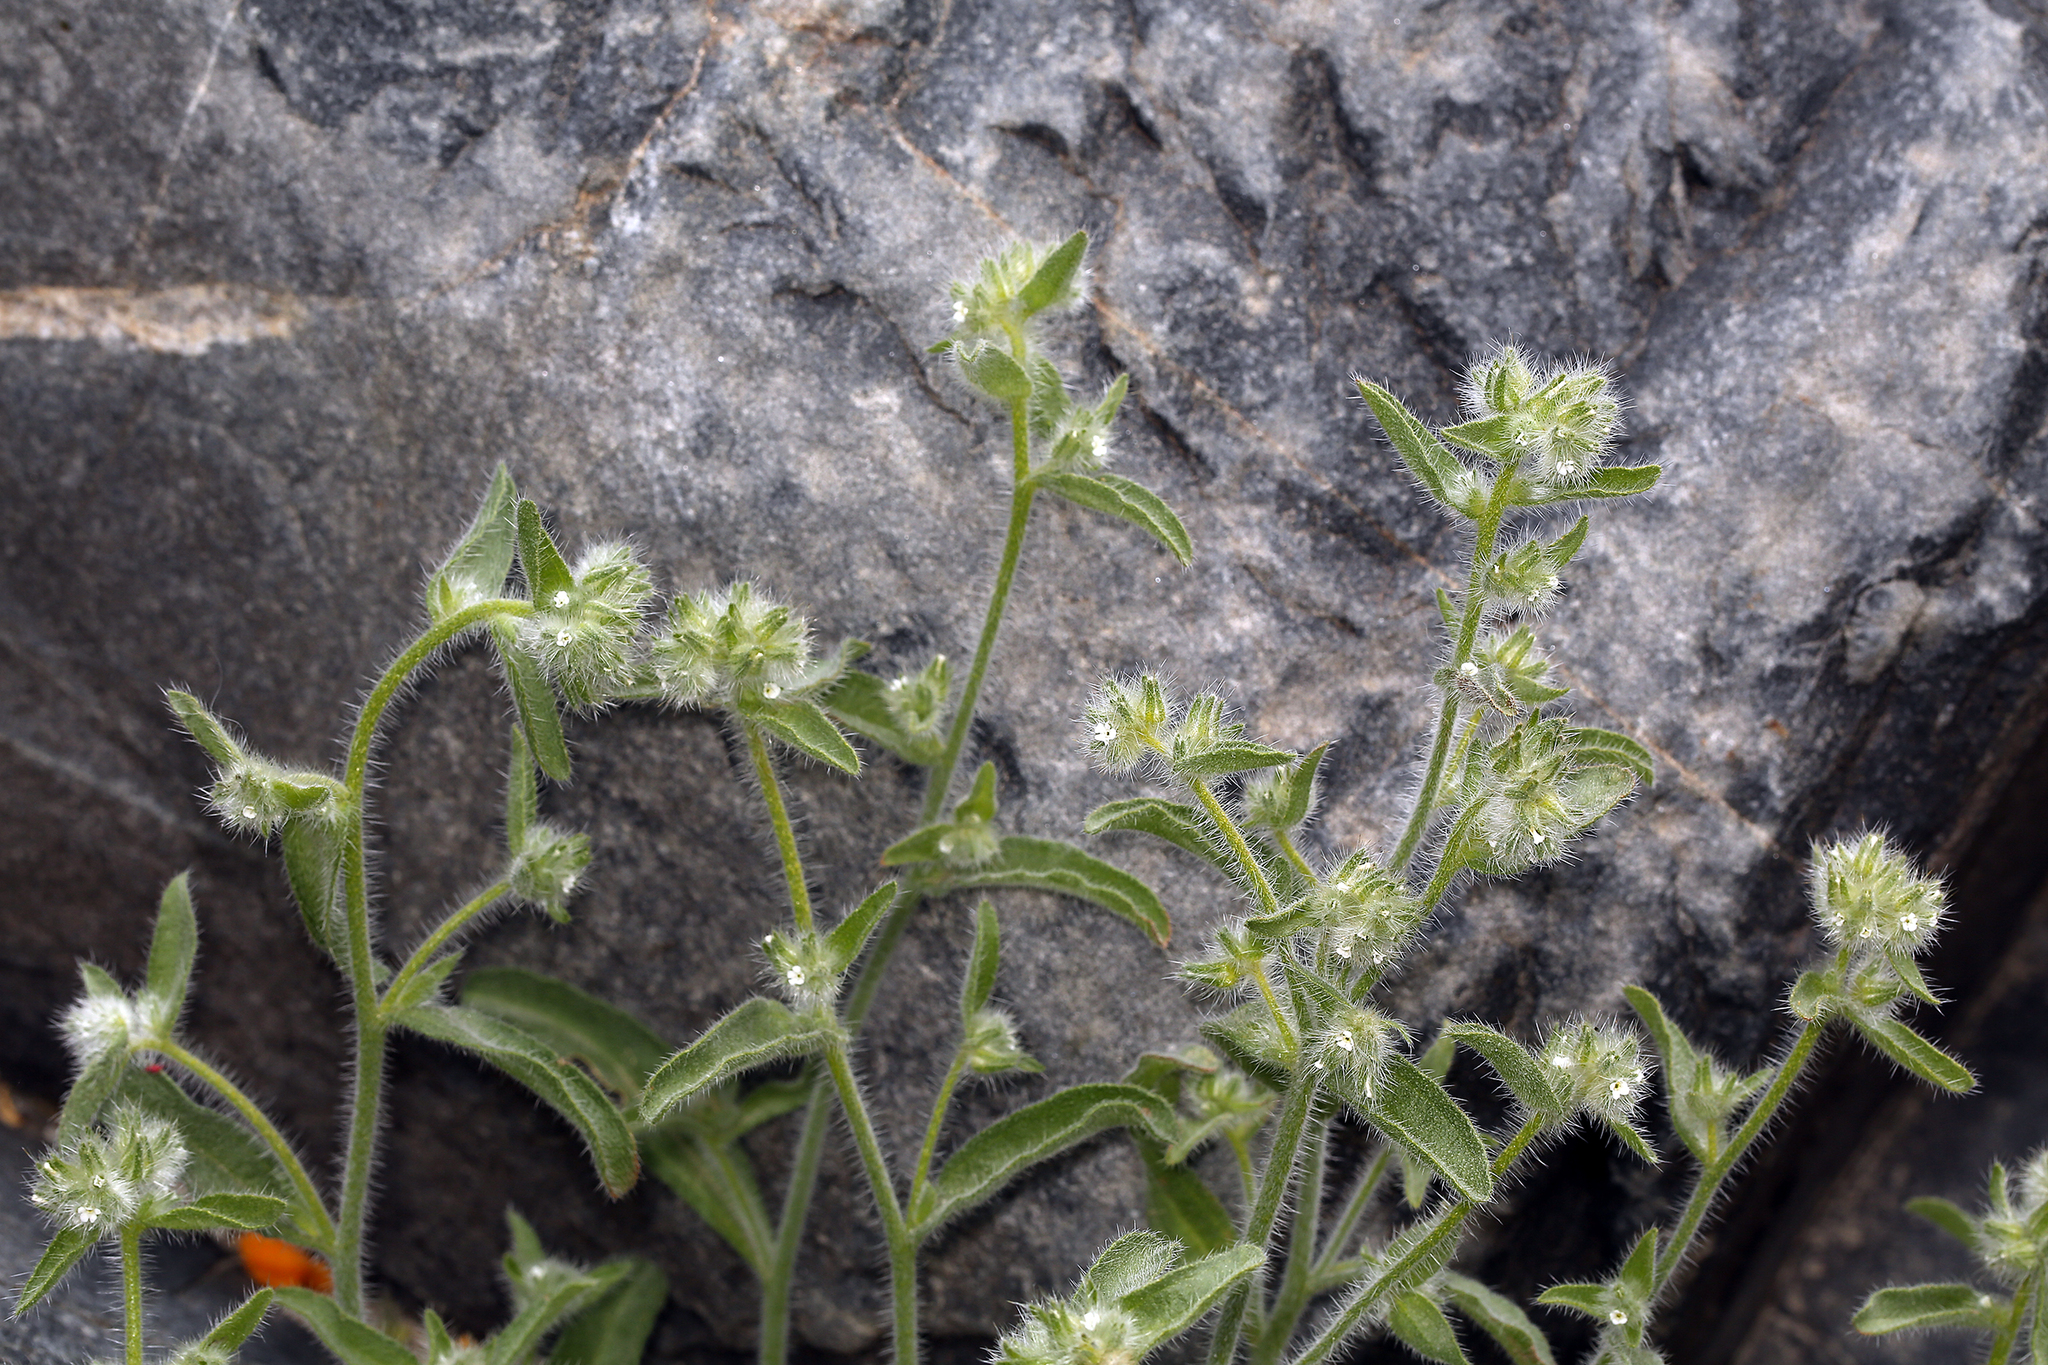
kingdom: Plantae
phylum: Tracheophyta
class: Magnoliopsida
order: Boraginales
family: Boraginaceae
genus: Simpsonanthus
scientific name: Simpsonanthus jonesii
